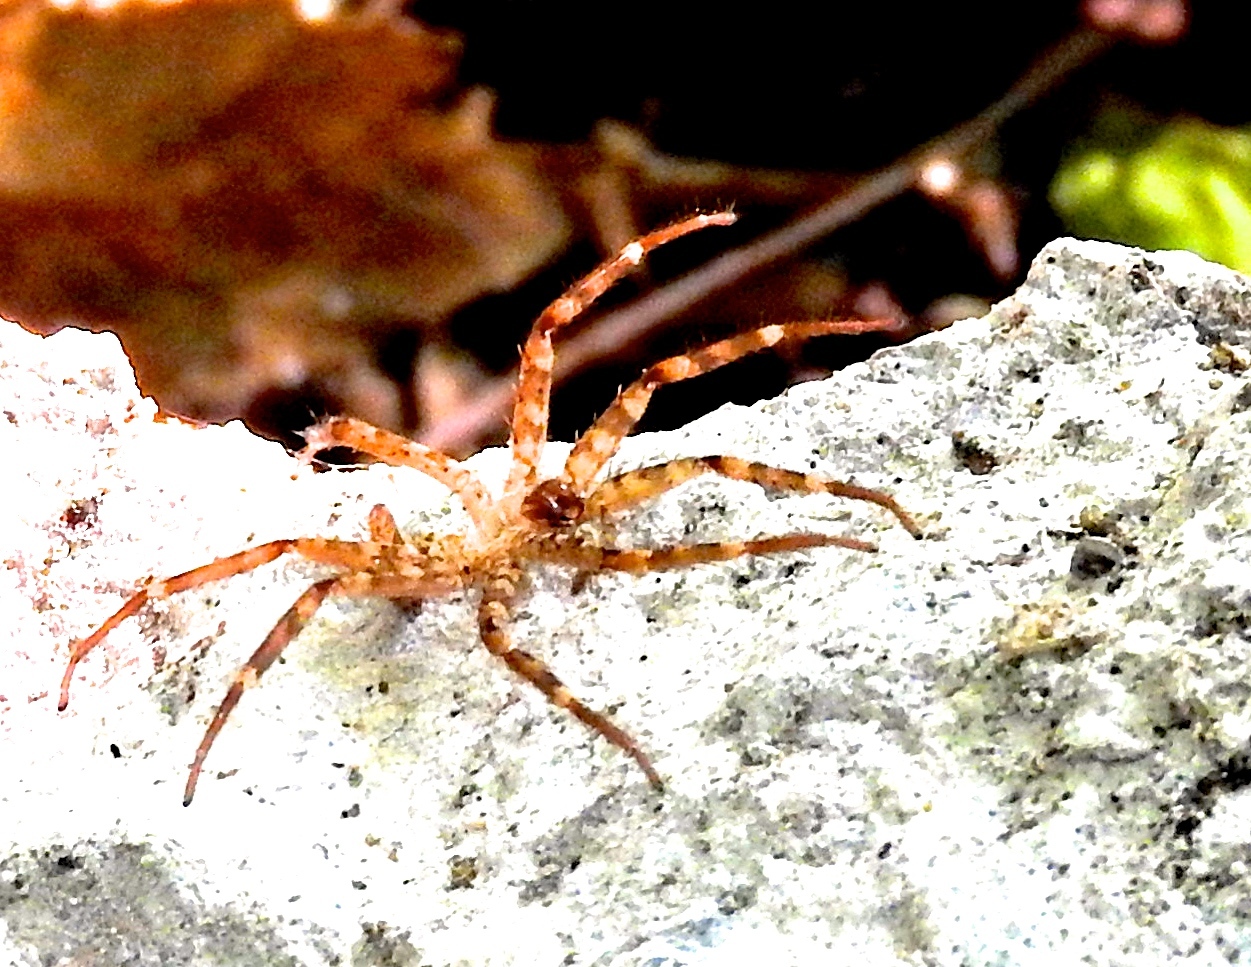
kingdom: Animalia
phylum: Arthropoda
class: Arachnida
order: Araneae
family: Selenopidae
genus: Selenops
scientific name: Selenops
